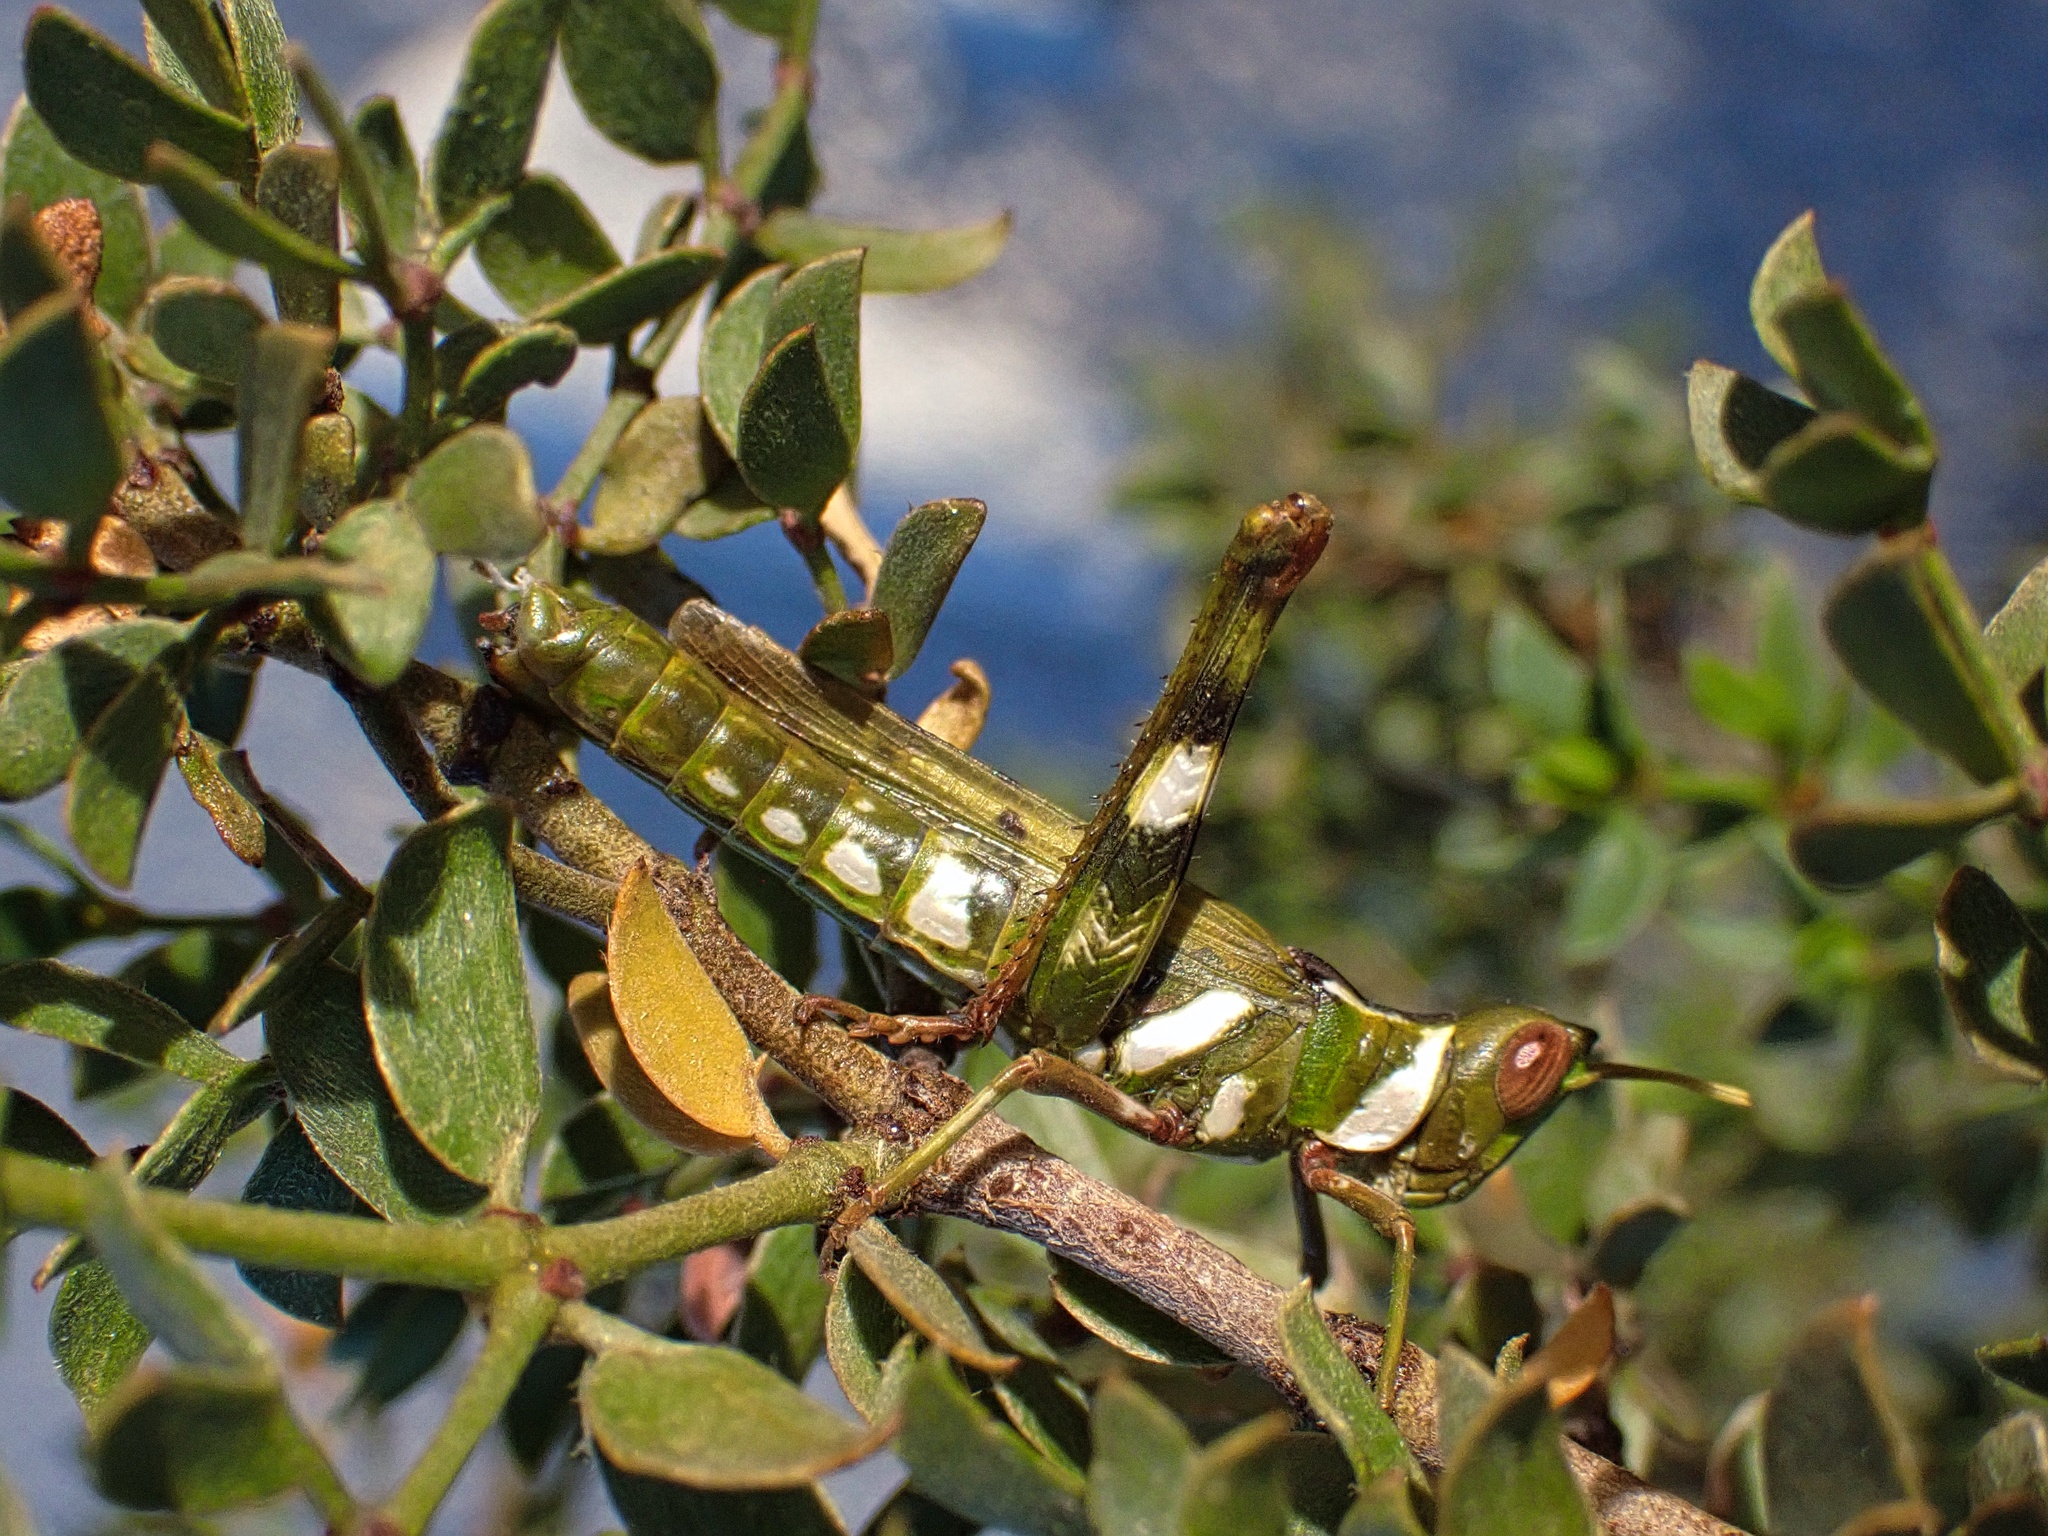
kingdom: Animalia
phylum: Arthropoda
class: Insecta
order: Orthoptera
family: Acrididae
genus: Bootettix
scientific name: Bootettix argentatus
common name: Creosote bush grasshopper
